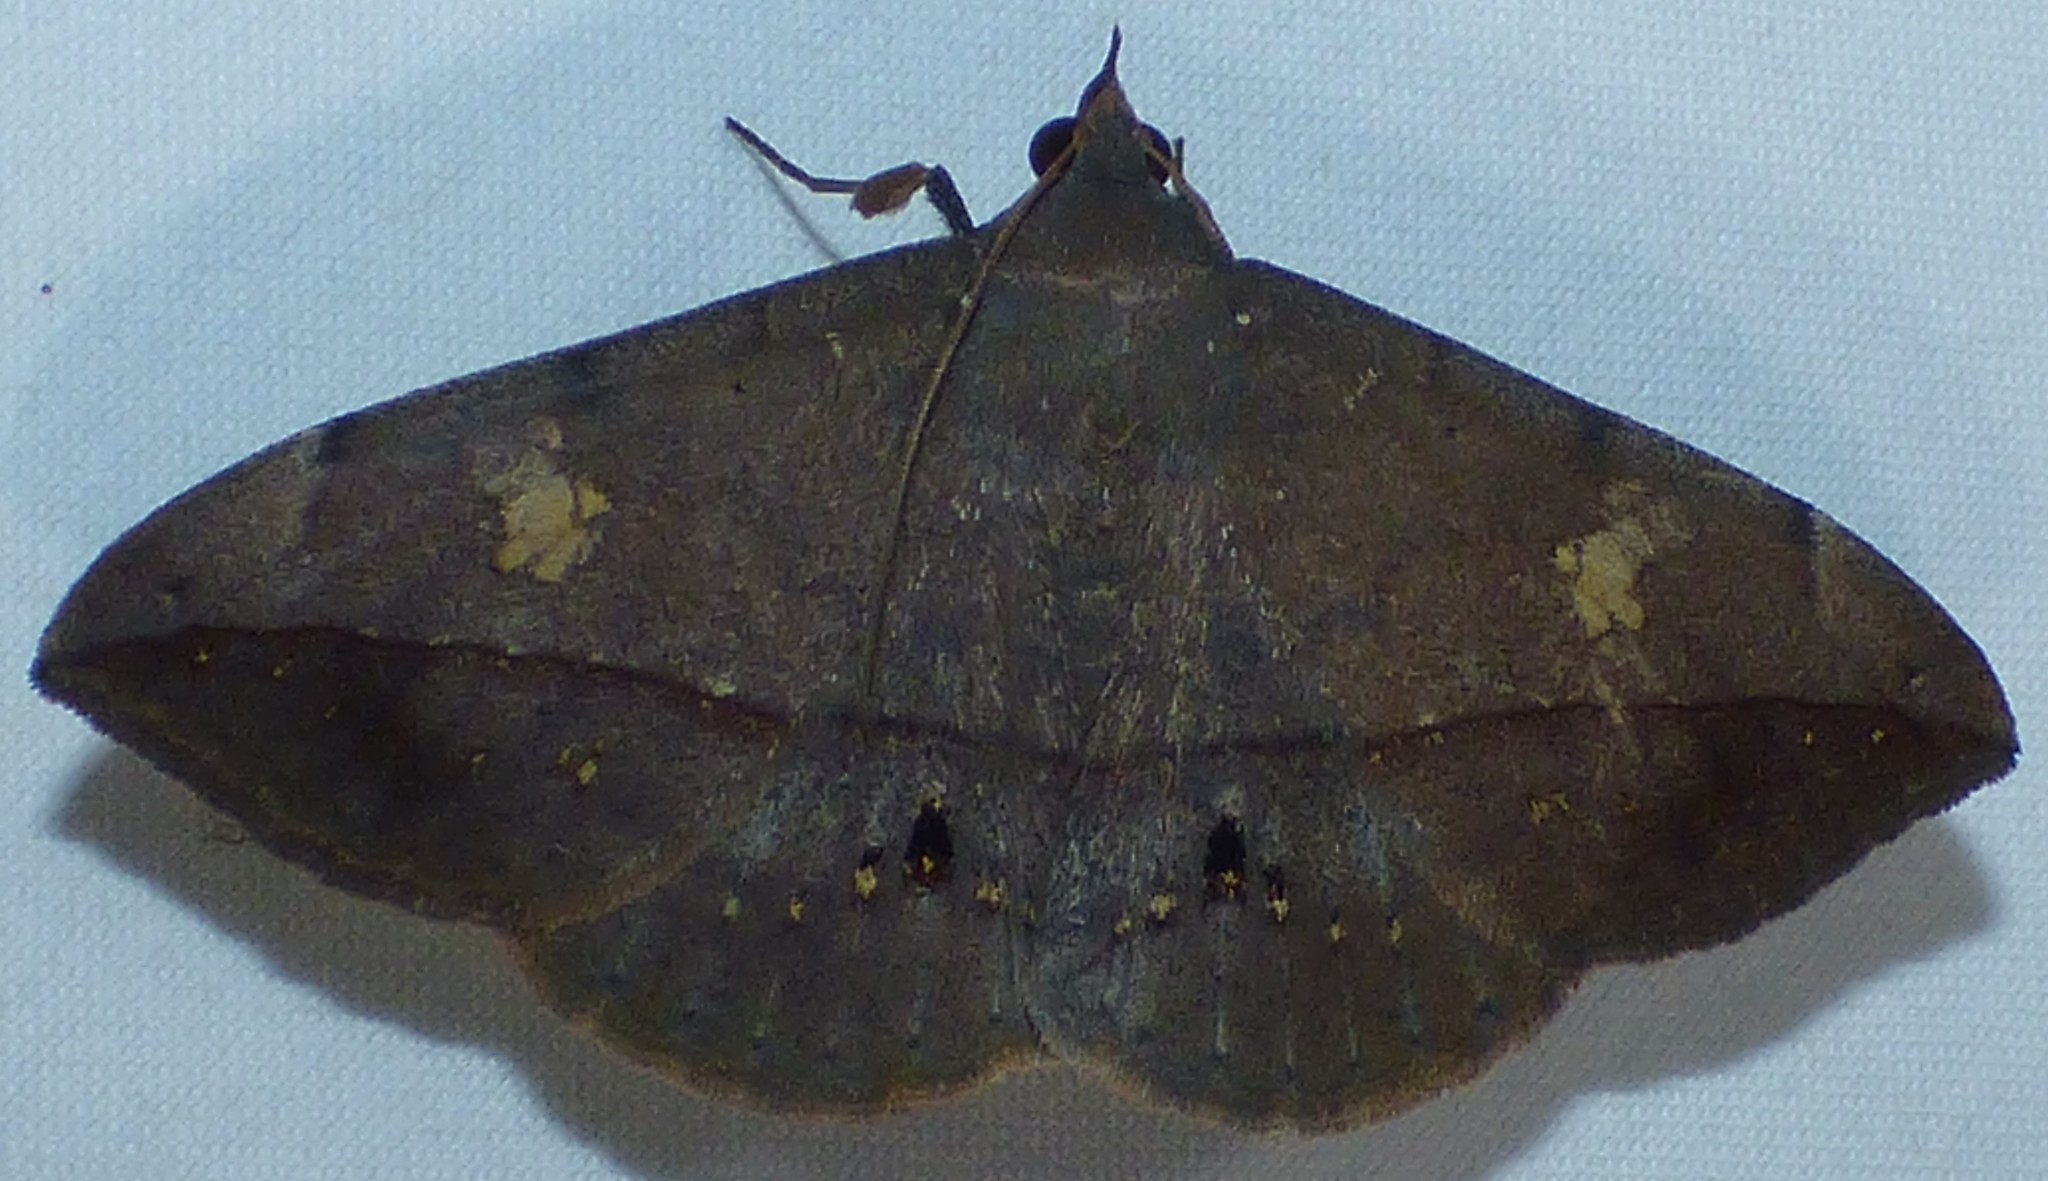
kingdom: Animalia
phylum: Arthropoda
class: Insecta
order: Lepidoptera
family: Erebidae
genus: Anticarsia
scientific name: Anticarsia gemmatalis
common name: Cutworm moth
